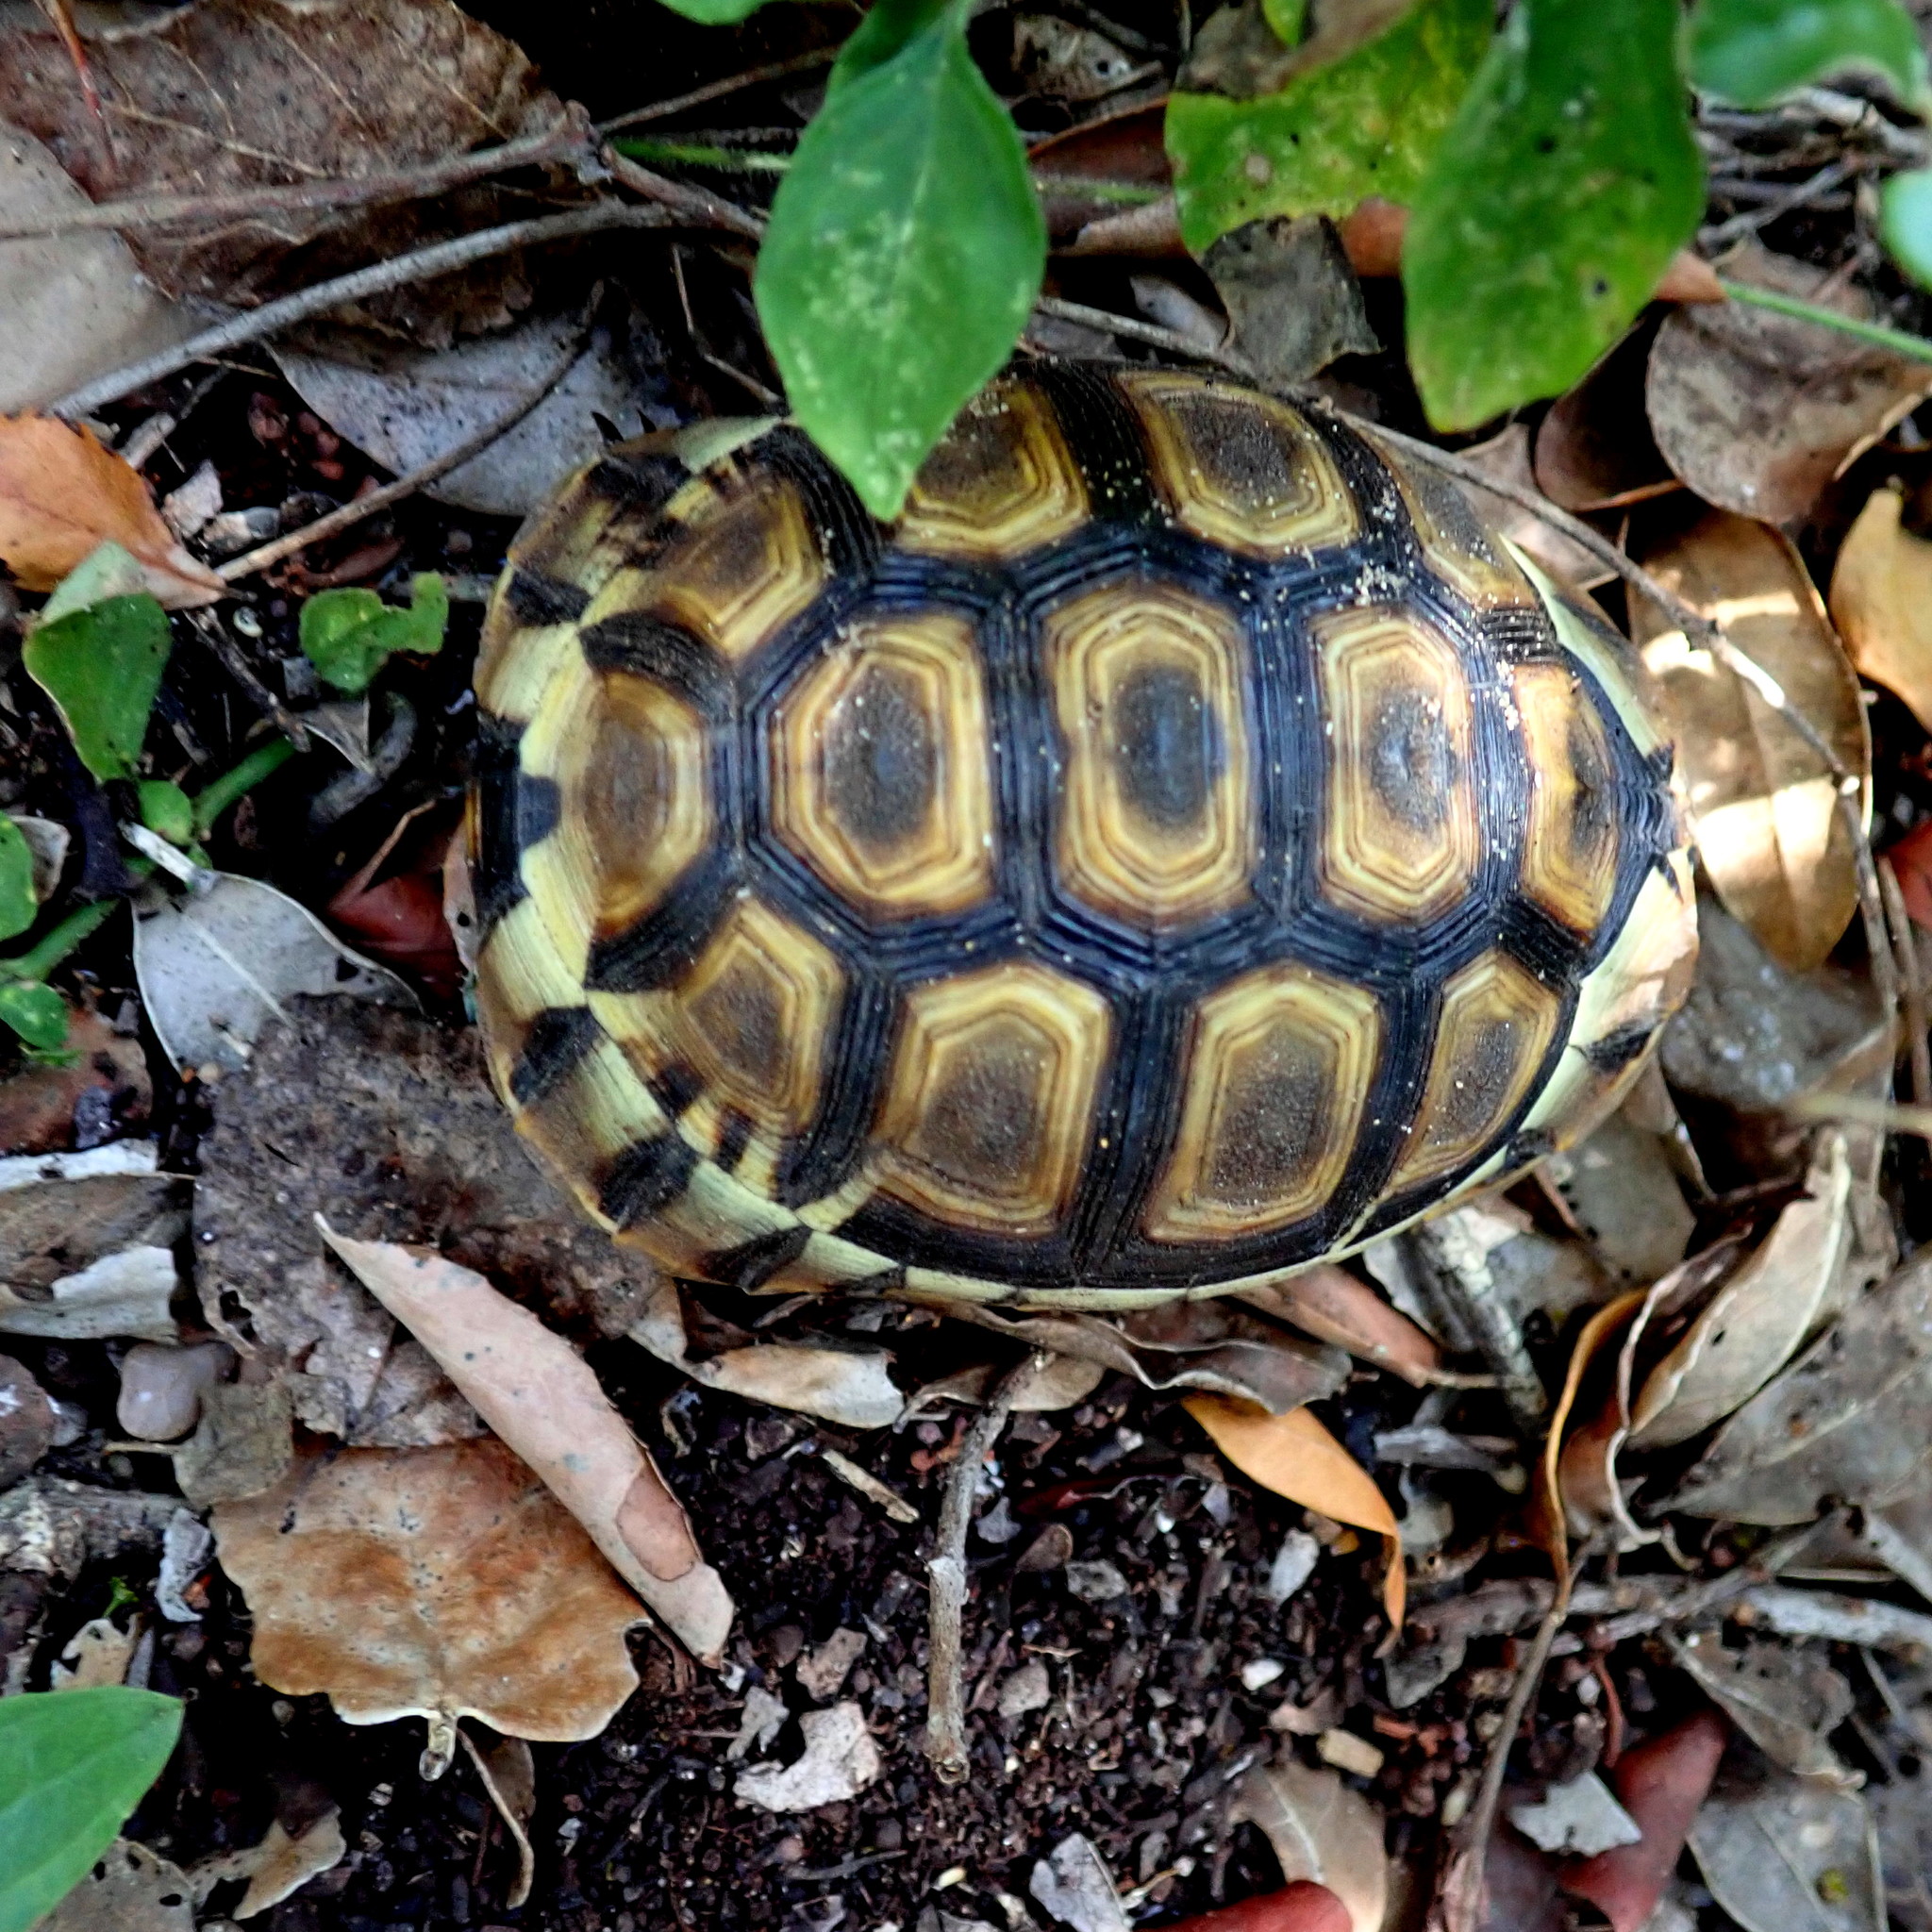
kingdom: Animalia
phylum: Chordata
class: Testudines
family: Testudinidae
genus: Chersina
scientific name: Chersina angulata
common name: South african bowsprit tortoise
